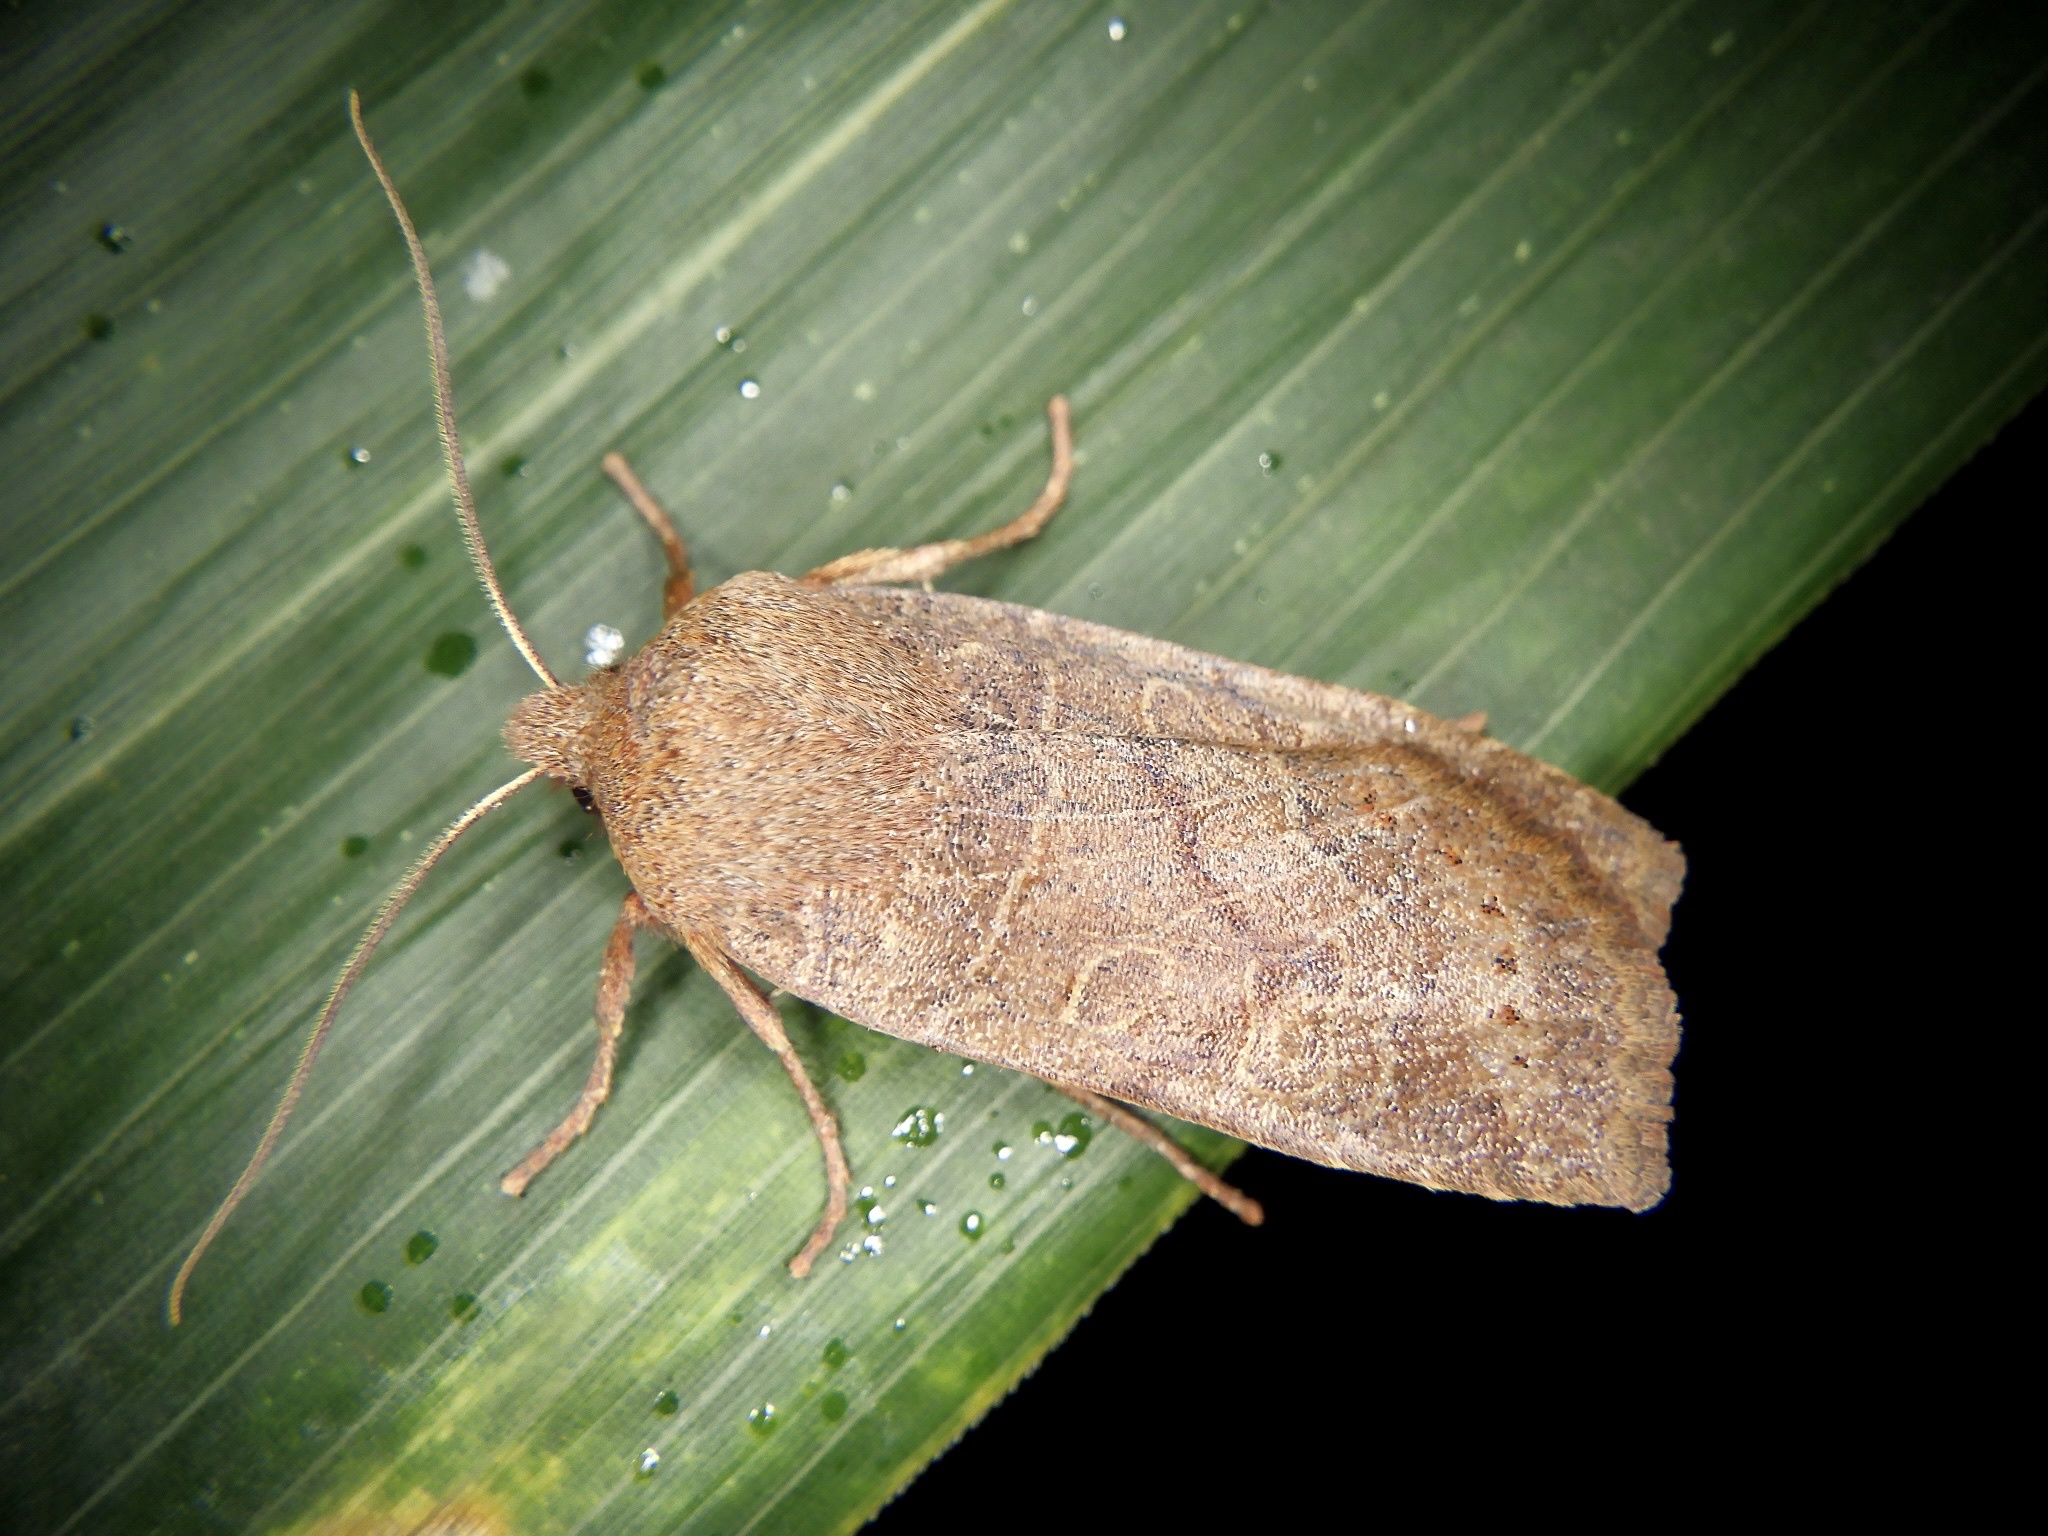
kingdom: Animalia
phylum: Arthropoda
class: Insecta
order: Lepidoptera
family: Noctuidae
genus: Conistra
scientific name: Conistra fletcheri
